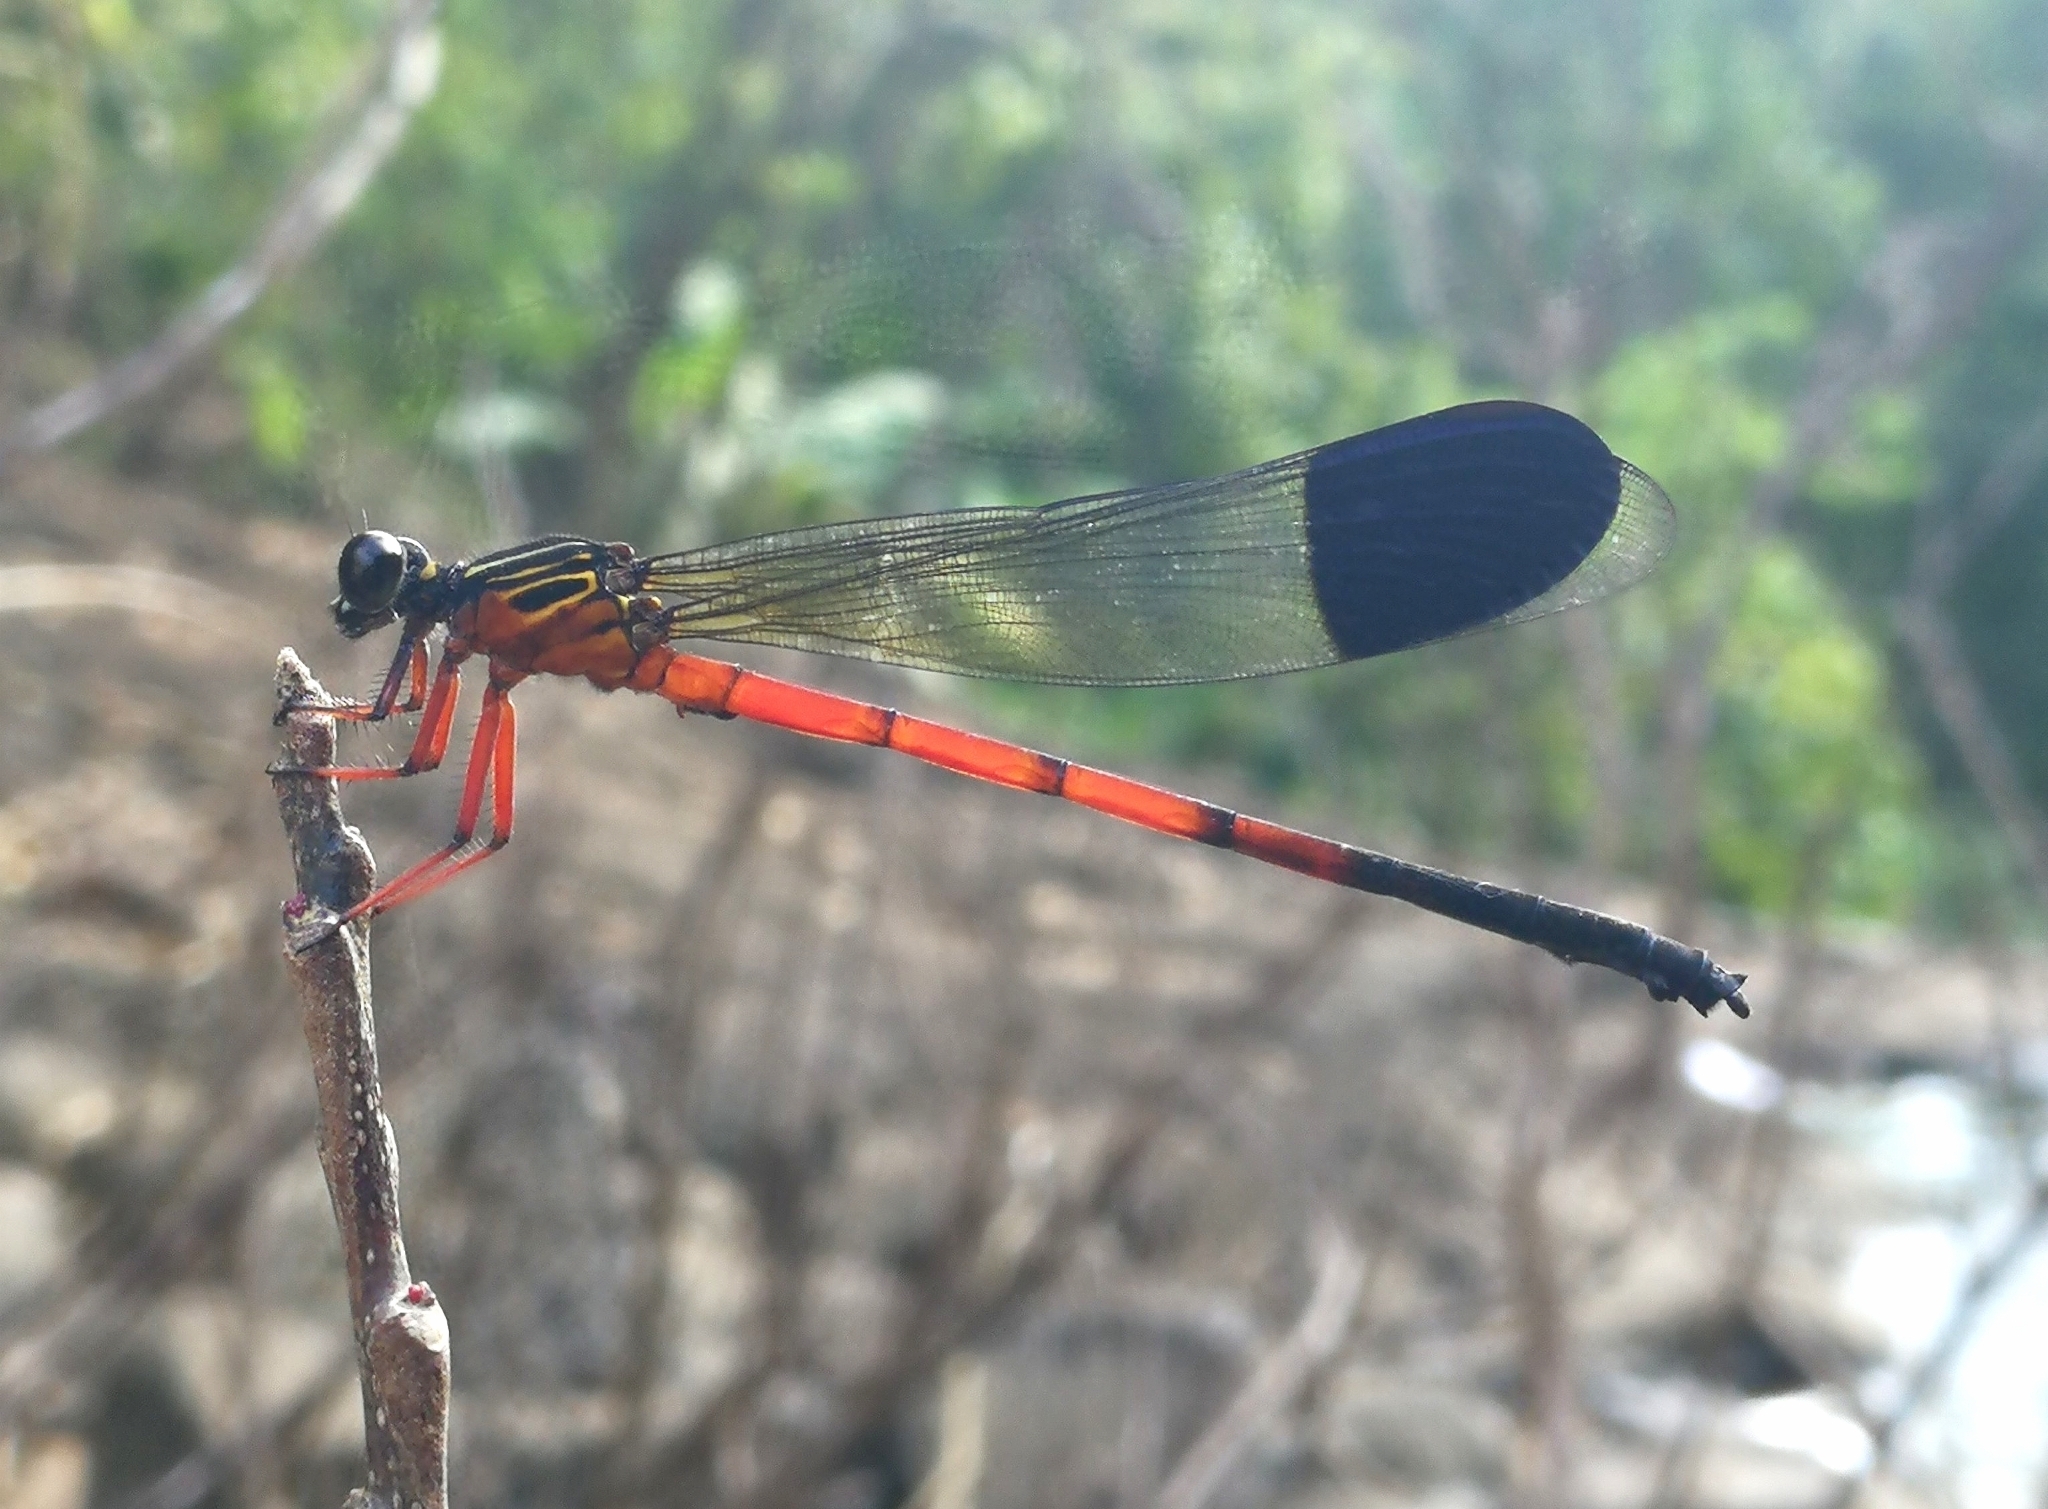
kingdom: Animalia
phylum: Arthropoda
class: Insecta
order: Odonata
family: Euphaeidae
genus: Euphaea
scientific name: Euphaea dispar
